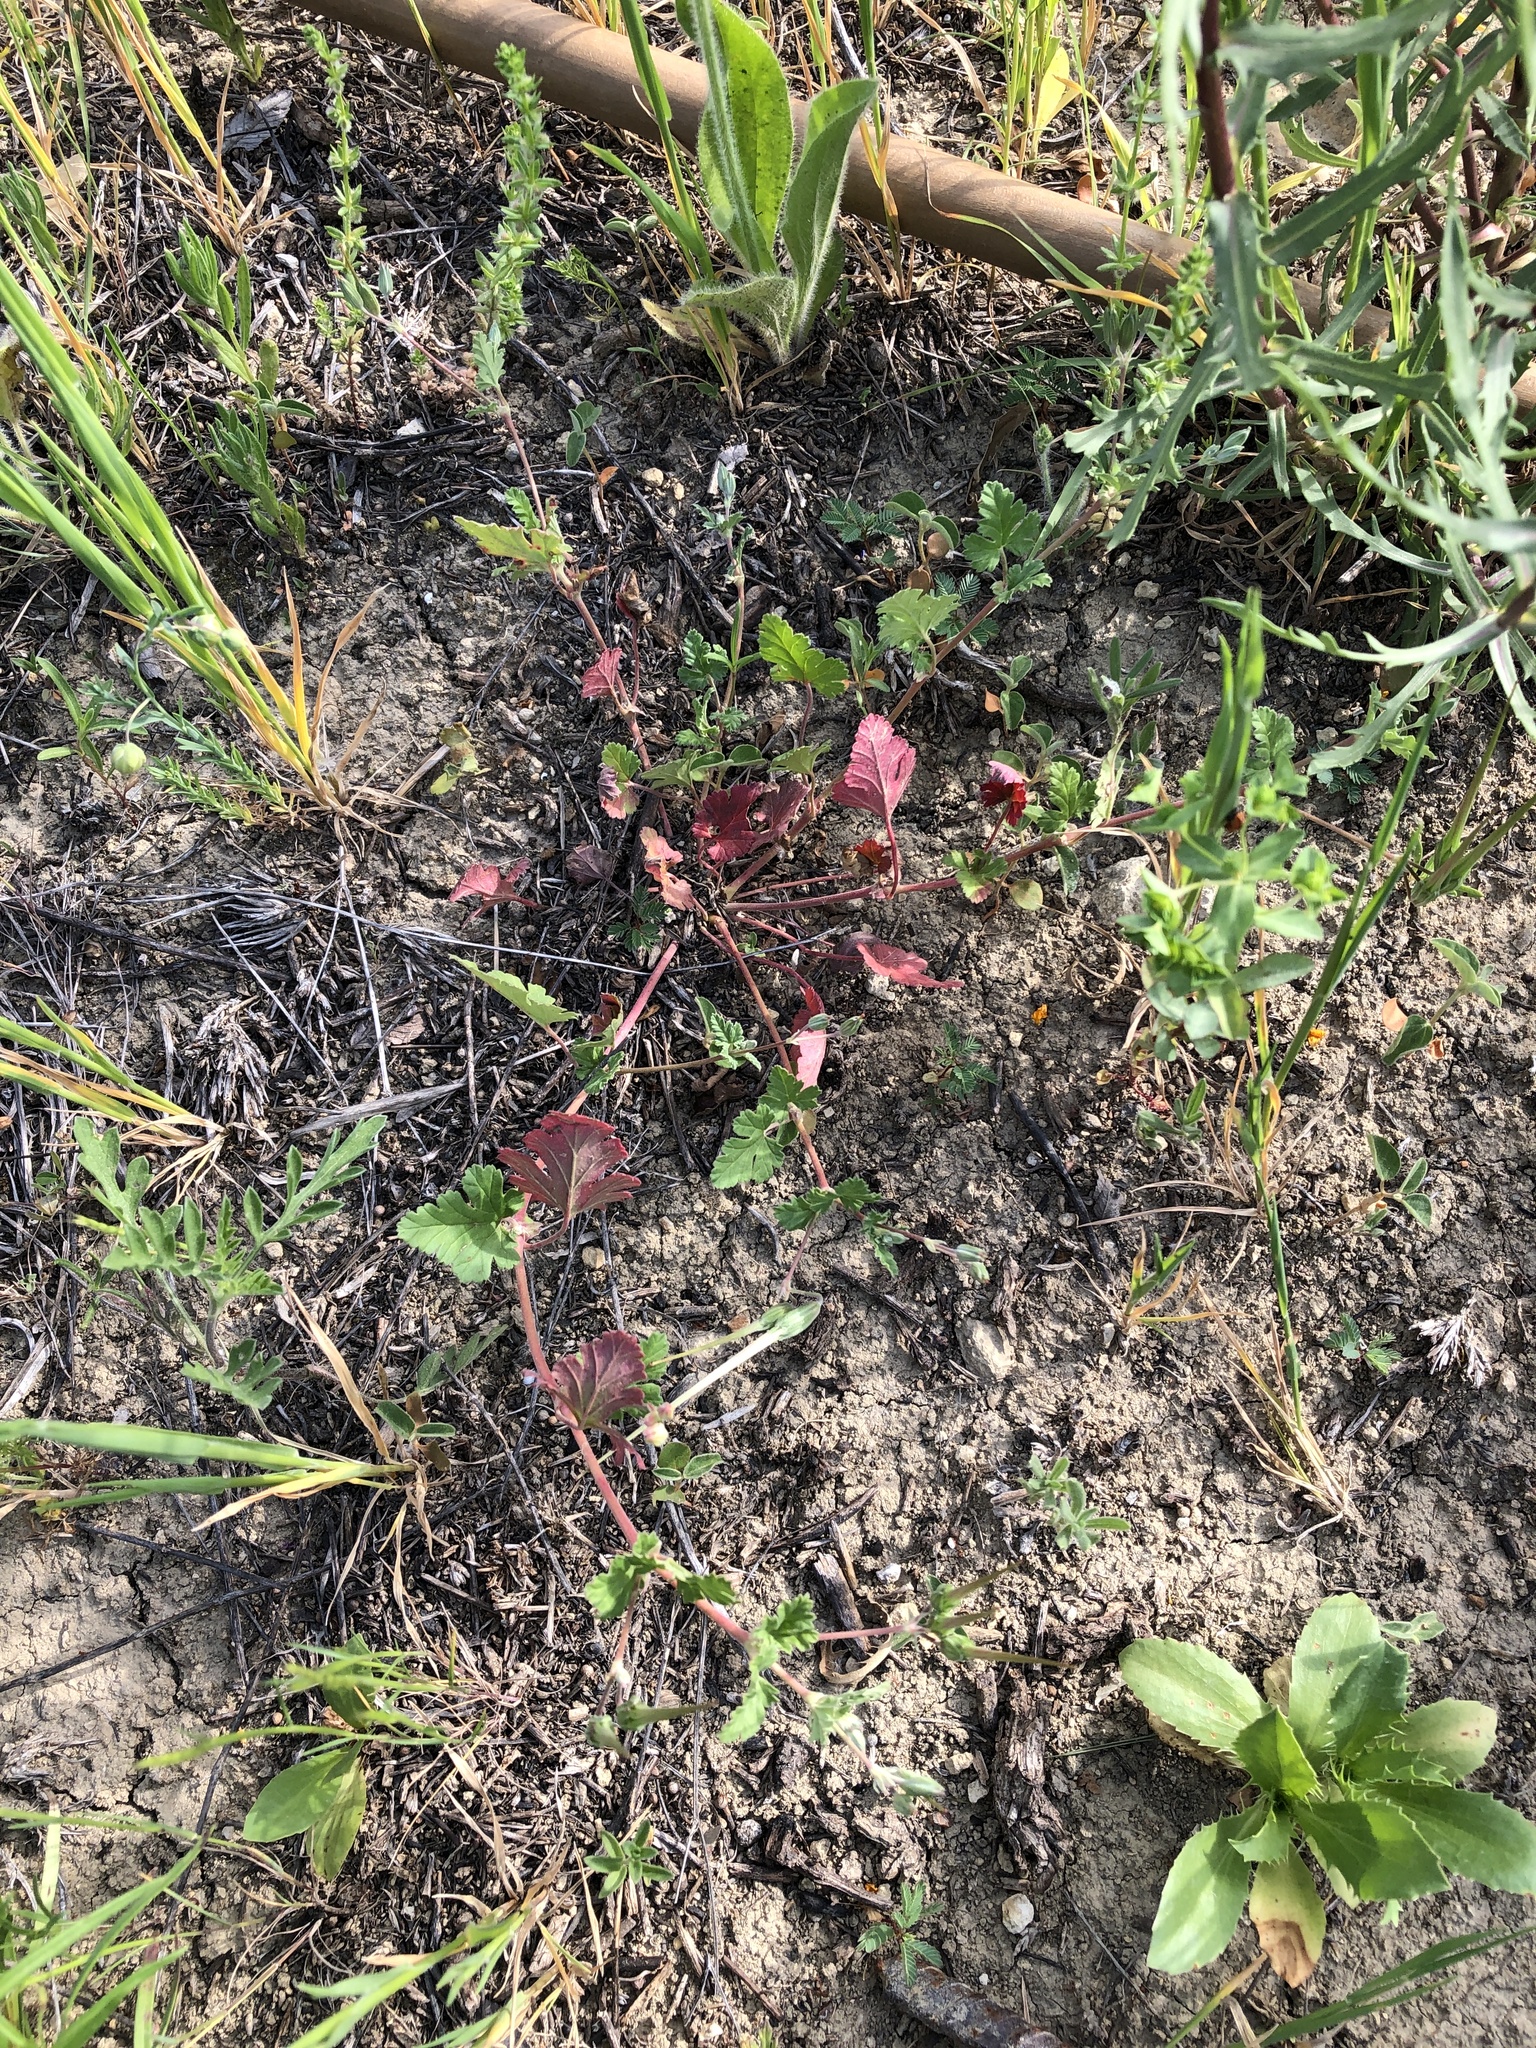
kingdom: Plantae
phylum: Tracheophyta
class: Magnoliopsida
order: Geraniales
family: Geraniaceae
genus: Erodium
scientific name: Erodium texanum
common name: Texas stork's-bill
